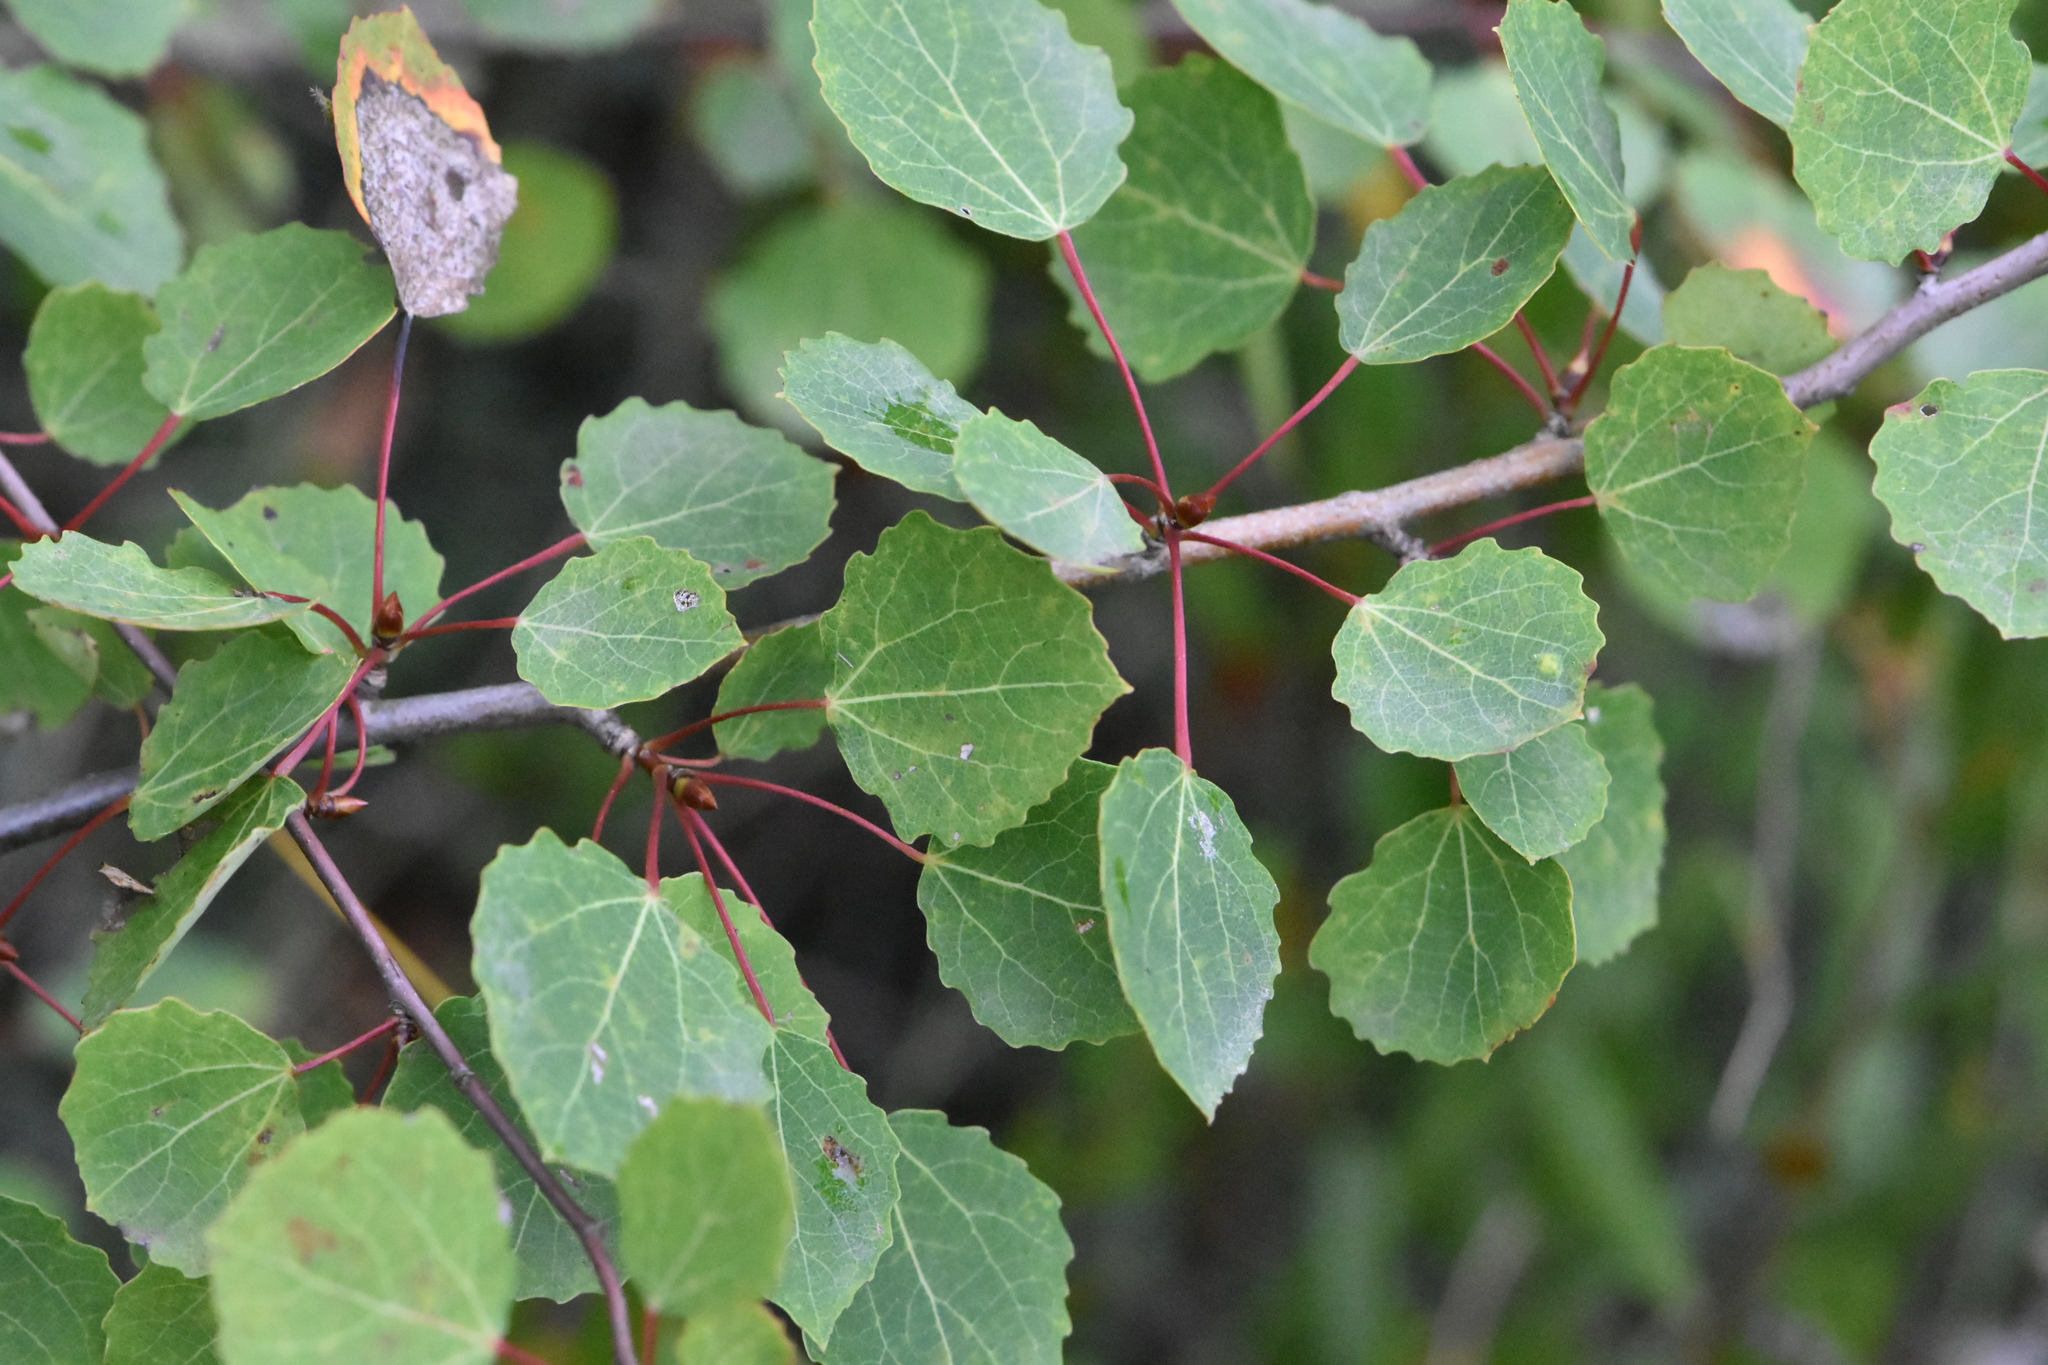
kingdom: Plantae
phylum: Tracheophyta
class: Magnoliopsida
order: Malpighiales
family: Salicaceae
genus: Populus
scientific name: Populus tremula
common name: European aspen
